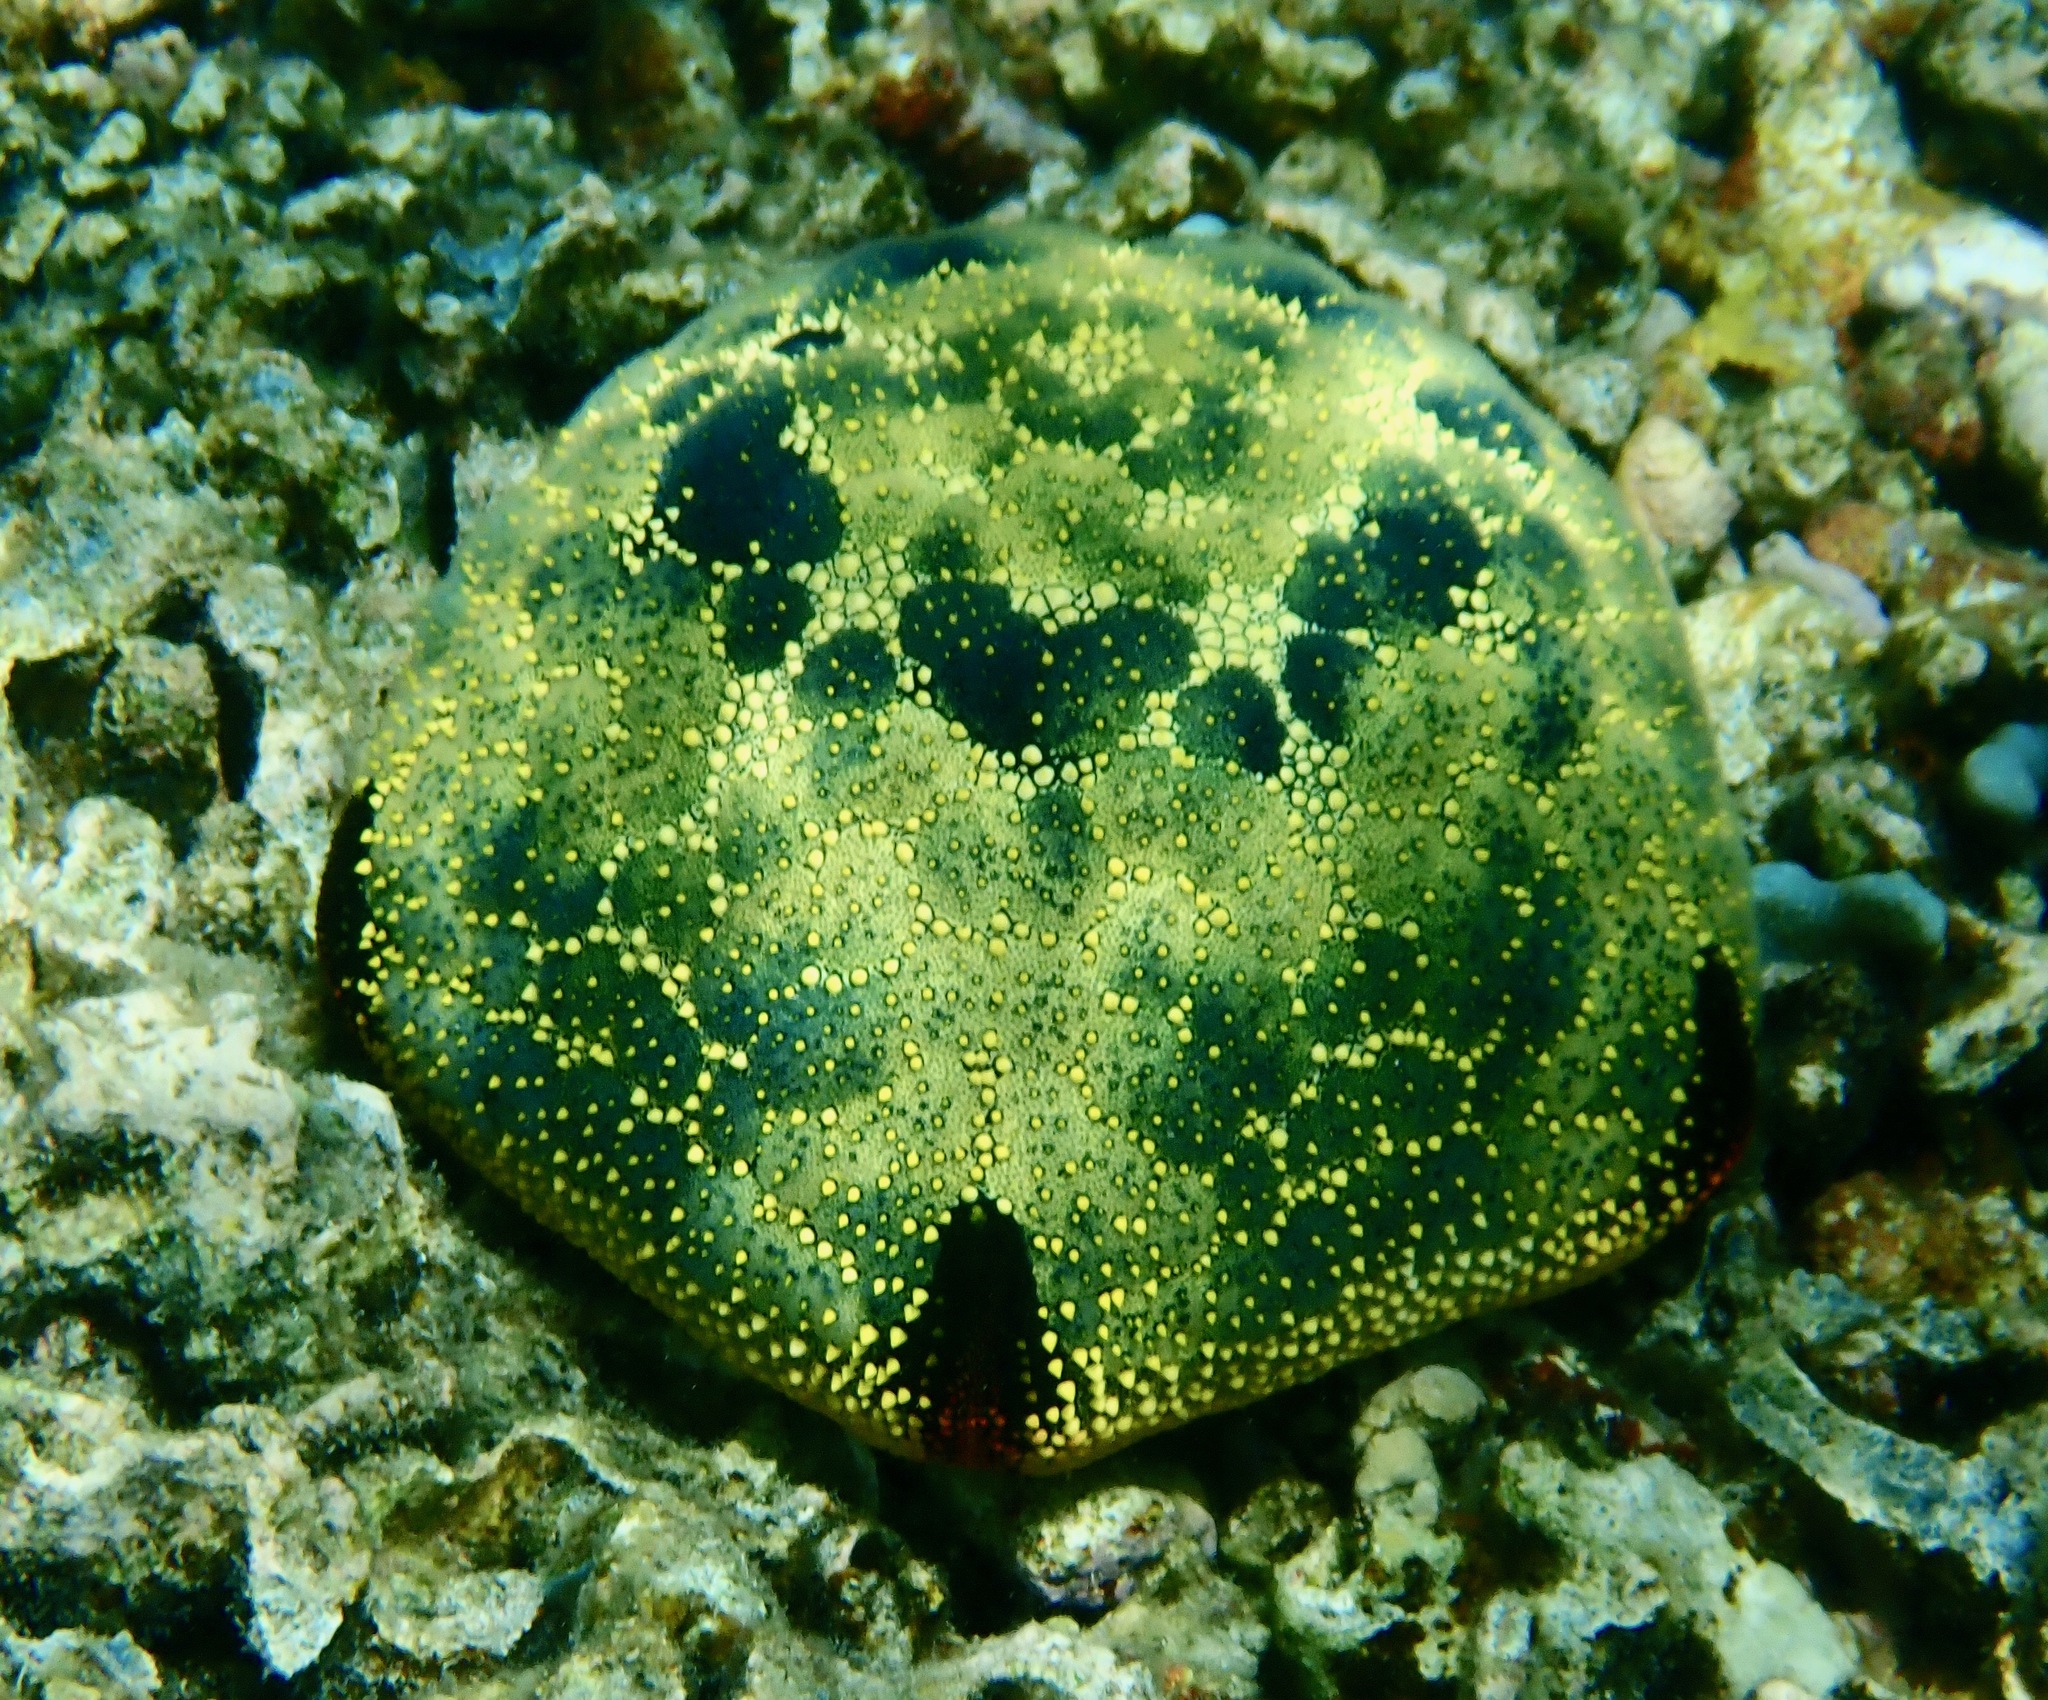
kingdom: Animalia
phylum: Echinodermata
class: Asteroidea
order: Valvatida
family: Oreasteridae
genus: Culcita
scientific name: Culcita novaeguineae
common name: Cushion star
